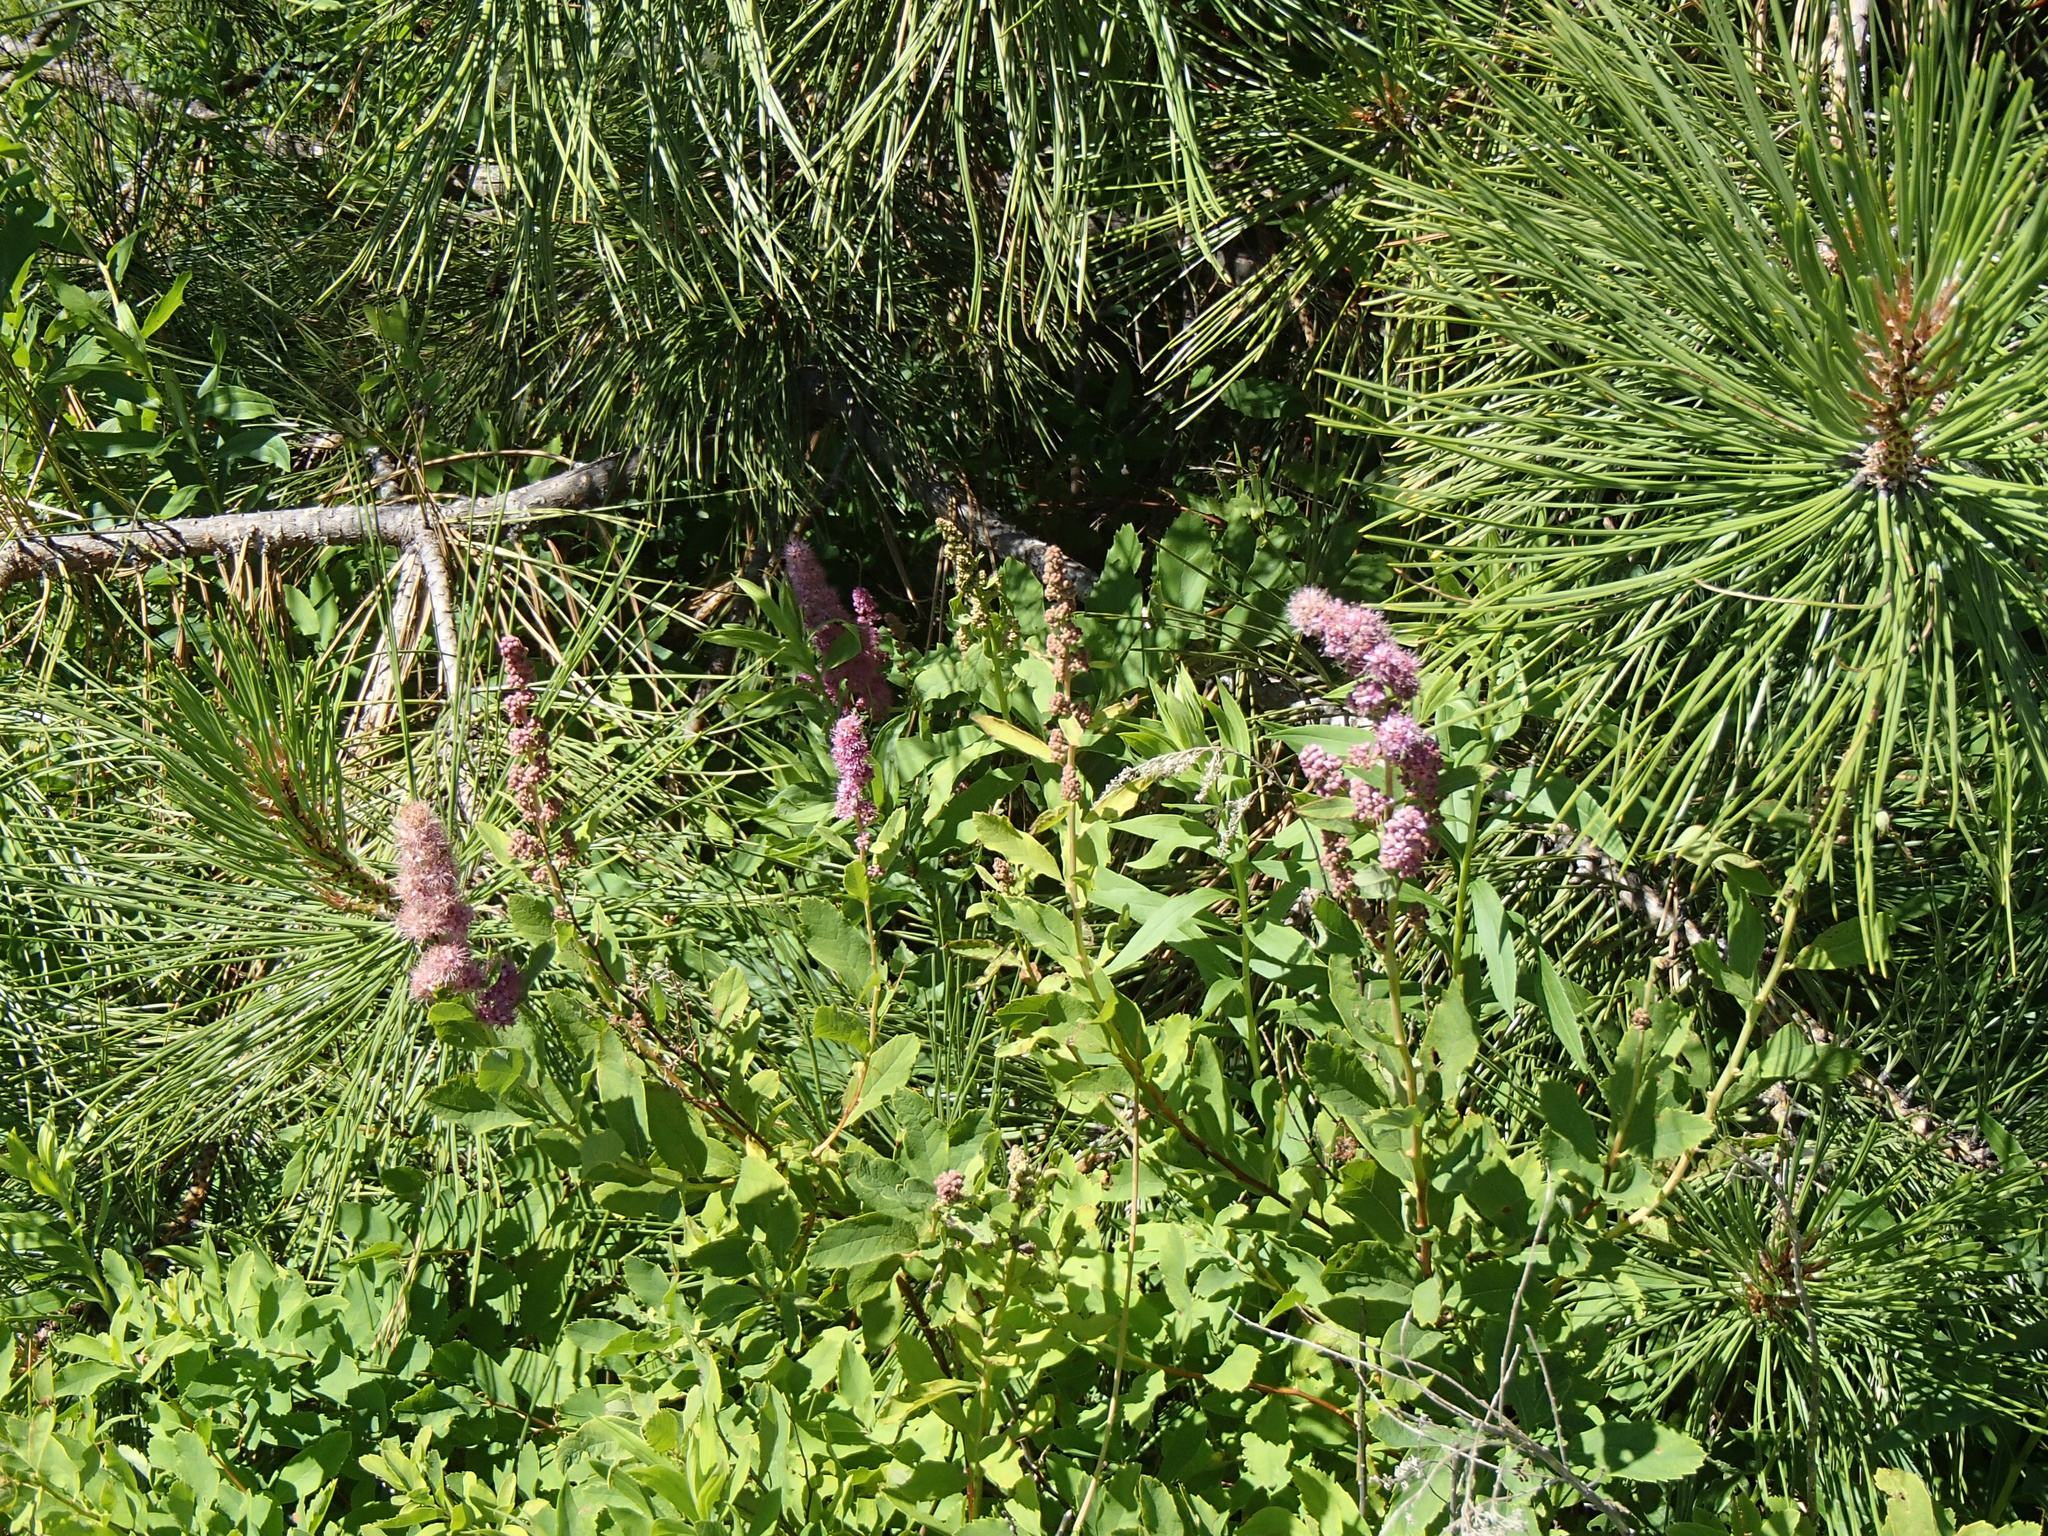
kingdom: Plantae
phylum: Tracheophyta
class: Magnoliopsida
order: Rosales
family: Rosaceae
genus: Spiraea
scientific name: Spiraea douglasii
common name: Steeplebush
